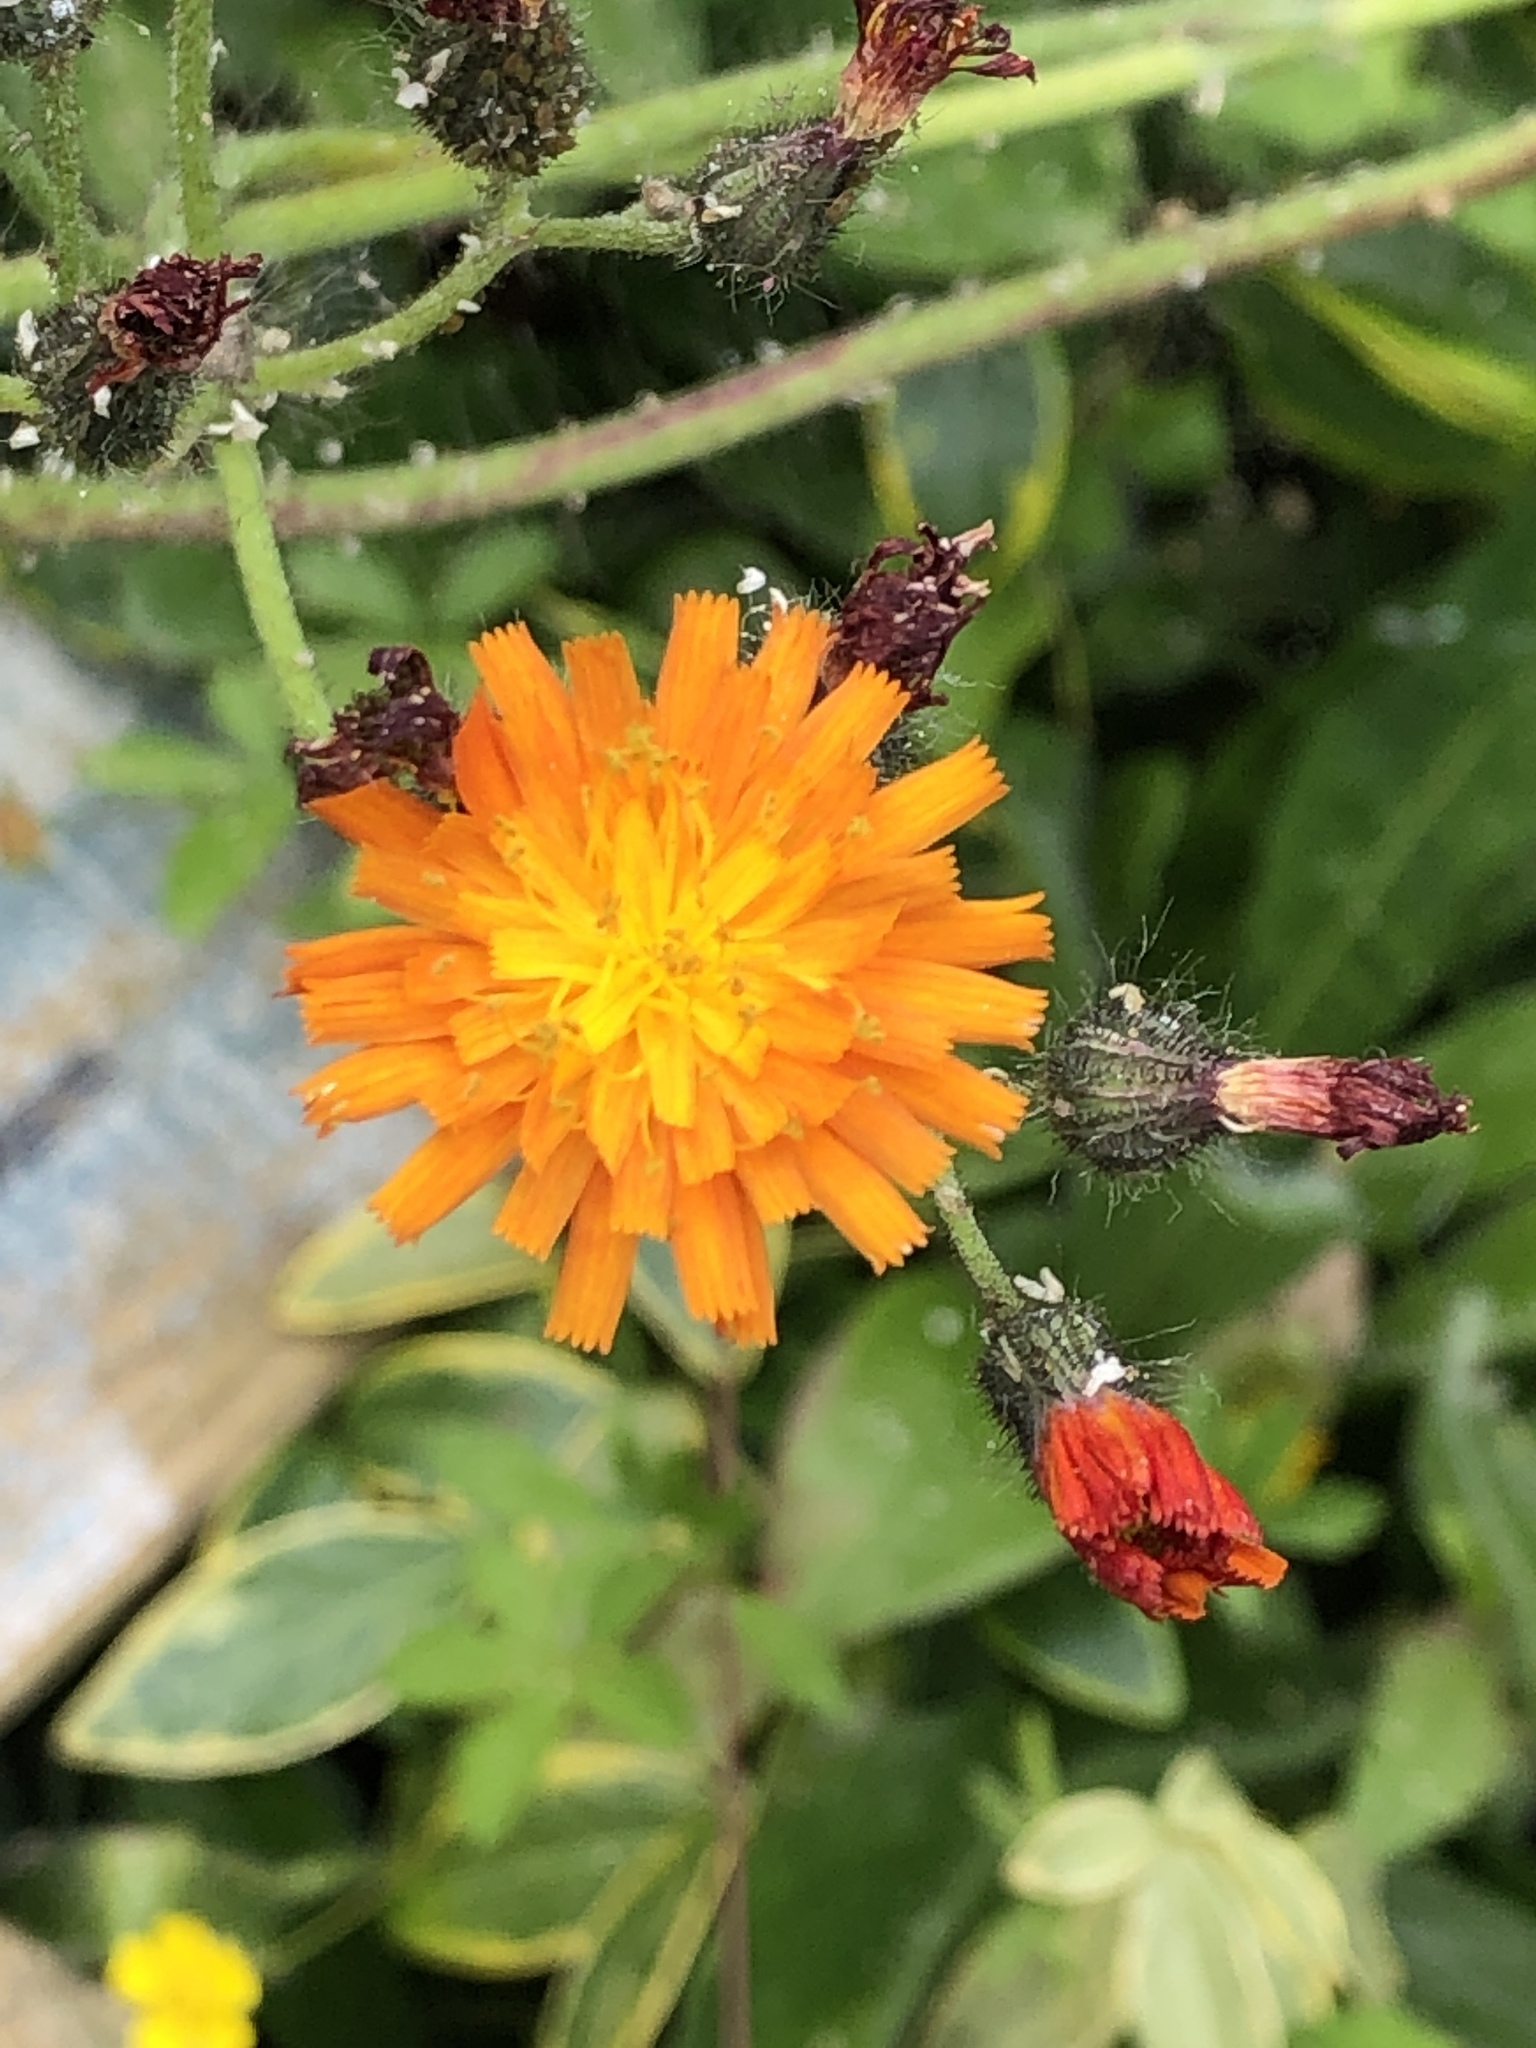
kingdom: Plantae
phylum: Tracheophyta
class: Magnoliopsida
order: Asterales
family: Asteraceae
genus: Pilosella
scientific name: Pilosella aurantiaca
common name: Fox-and-cubs
